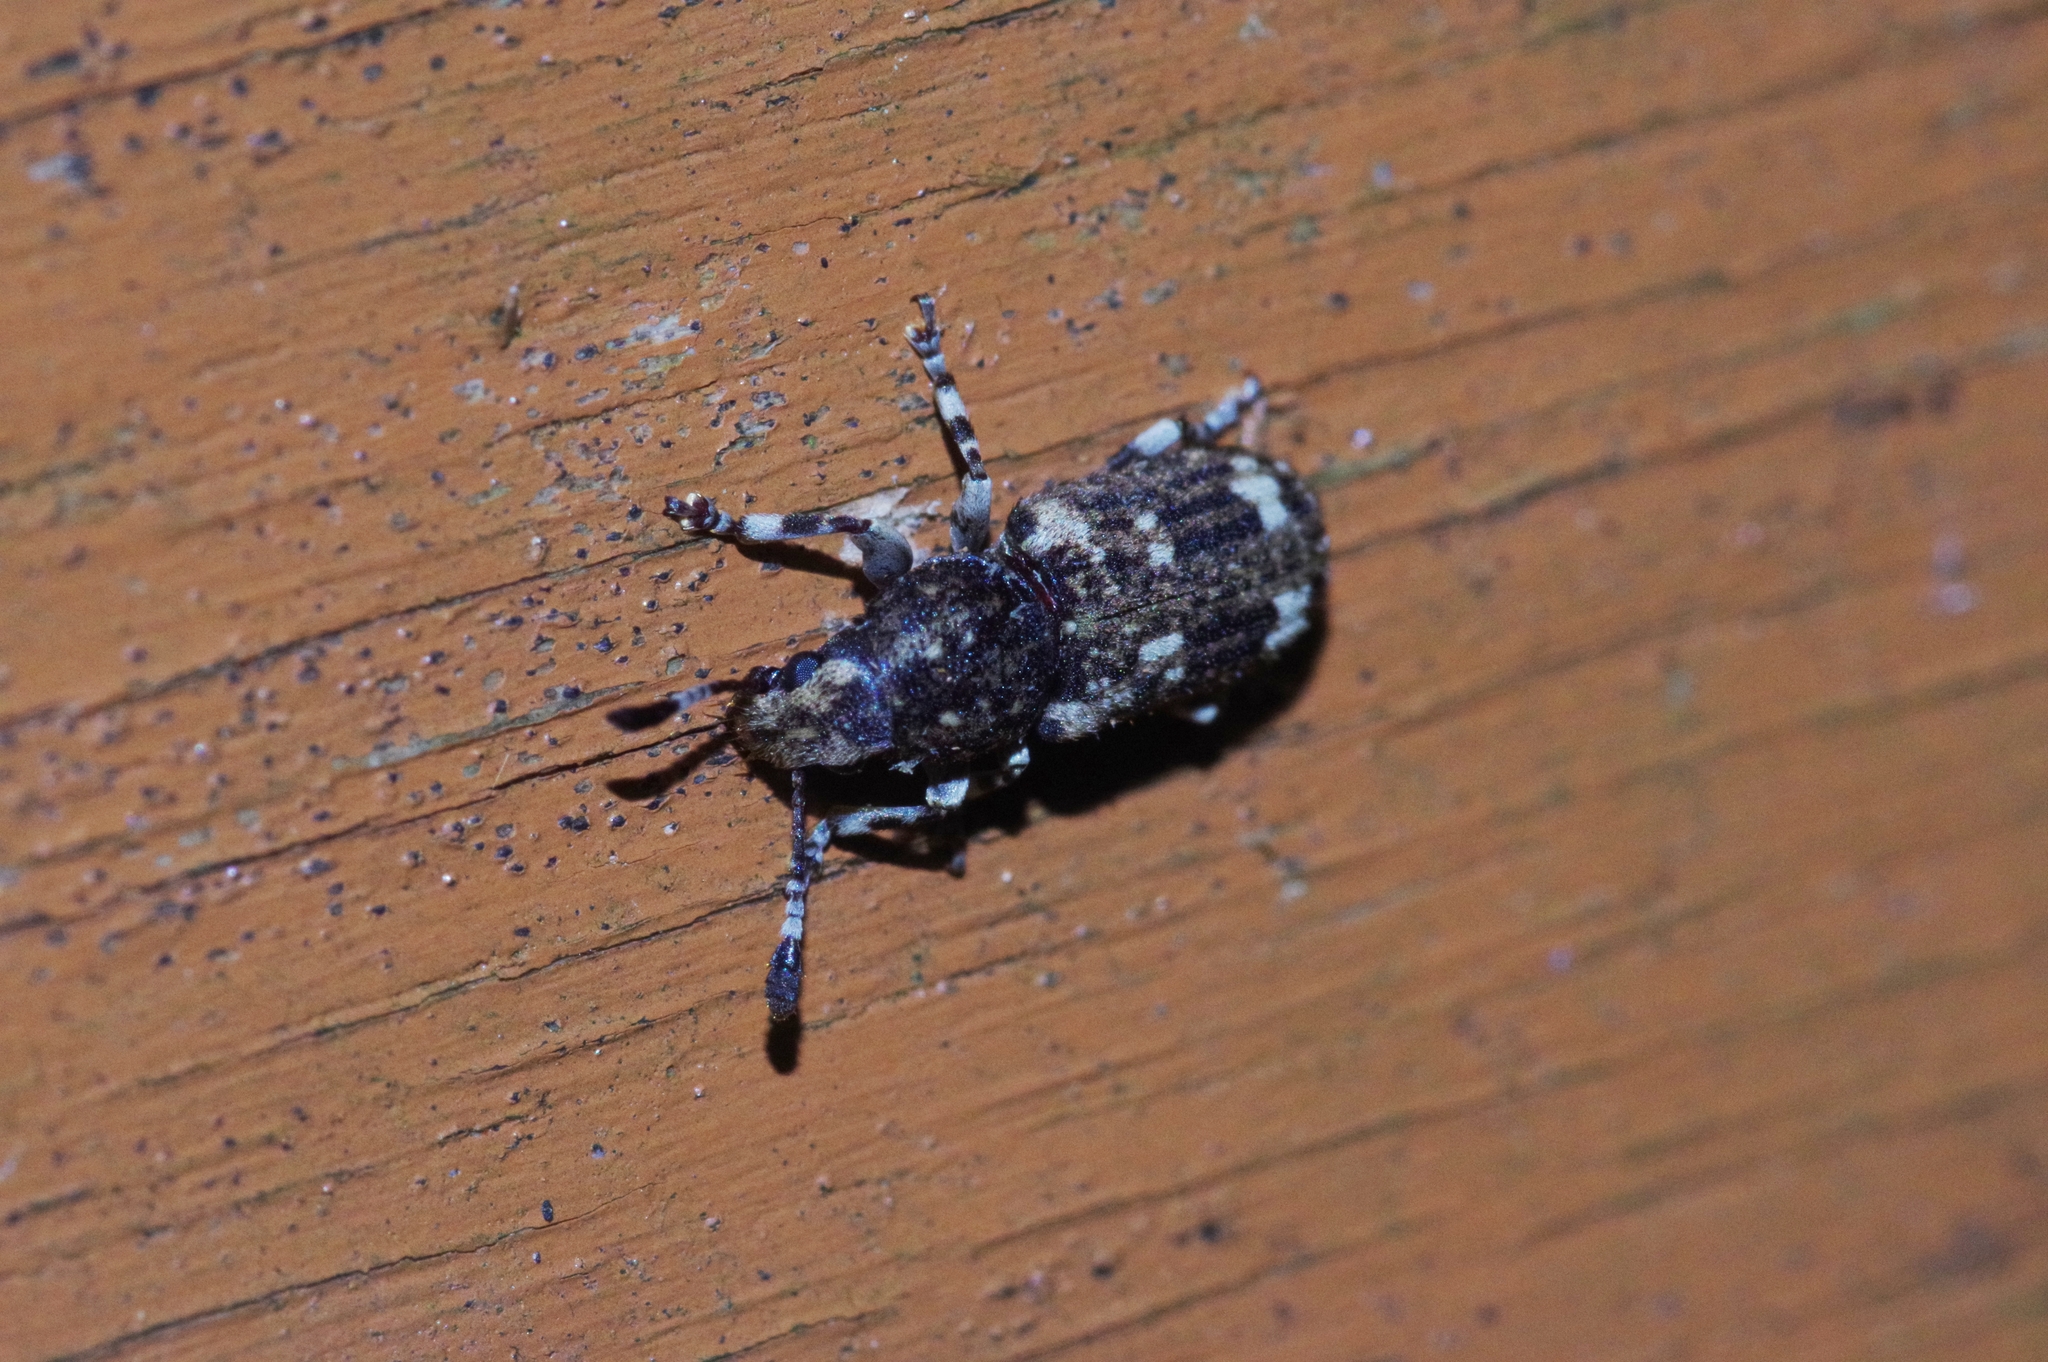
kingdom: Animalia
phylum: Arthropoda
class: Insecta
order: Coleoptera
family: Anthribidae
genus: Eucorynus
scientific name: Eucorynus crassicornis
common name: Fungus weevil
